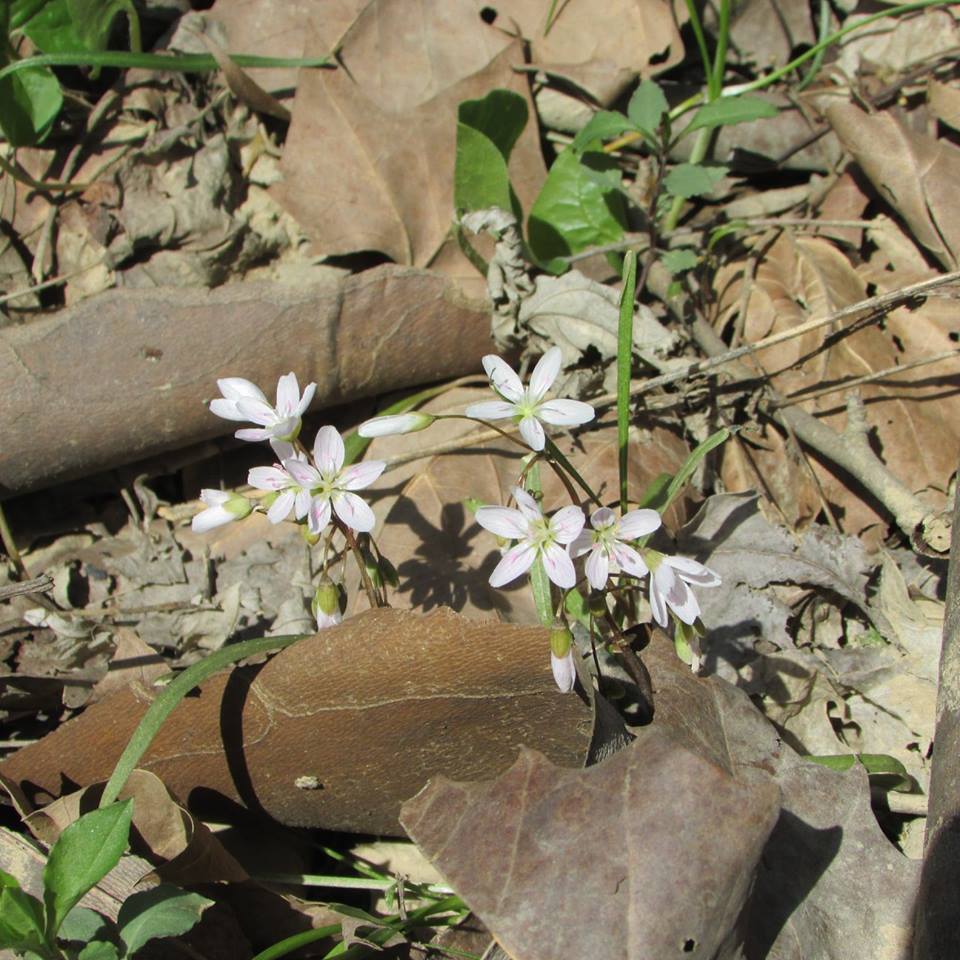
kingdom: Plantae
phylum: Tracheophyta
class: Magnoliopsida
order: Caryophyllales
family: Montiaceae
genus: Claytonia
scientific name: Claytonia virginica
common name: Virginia springbeauty
